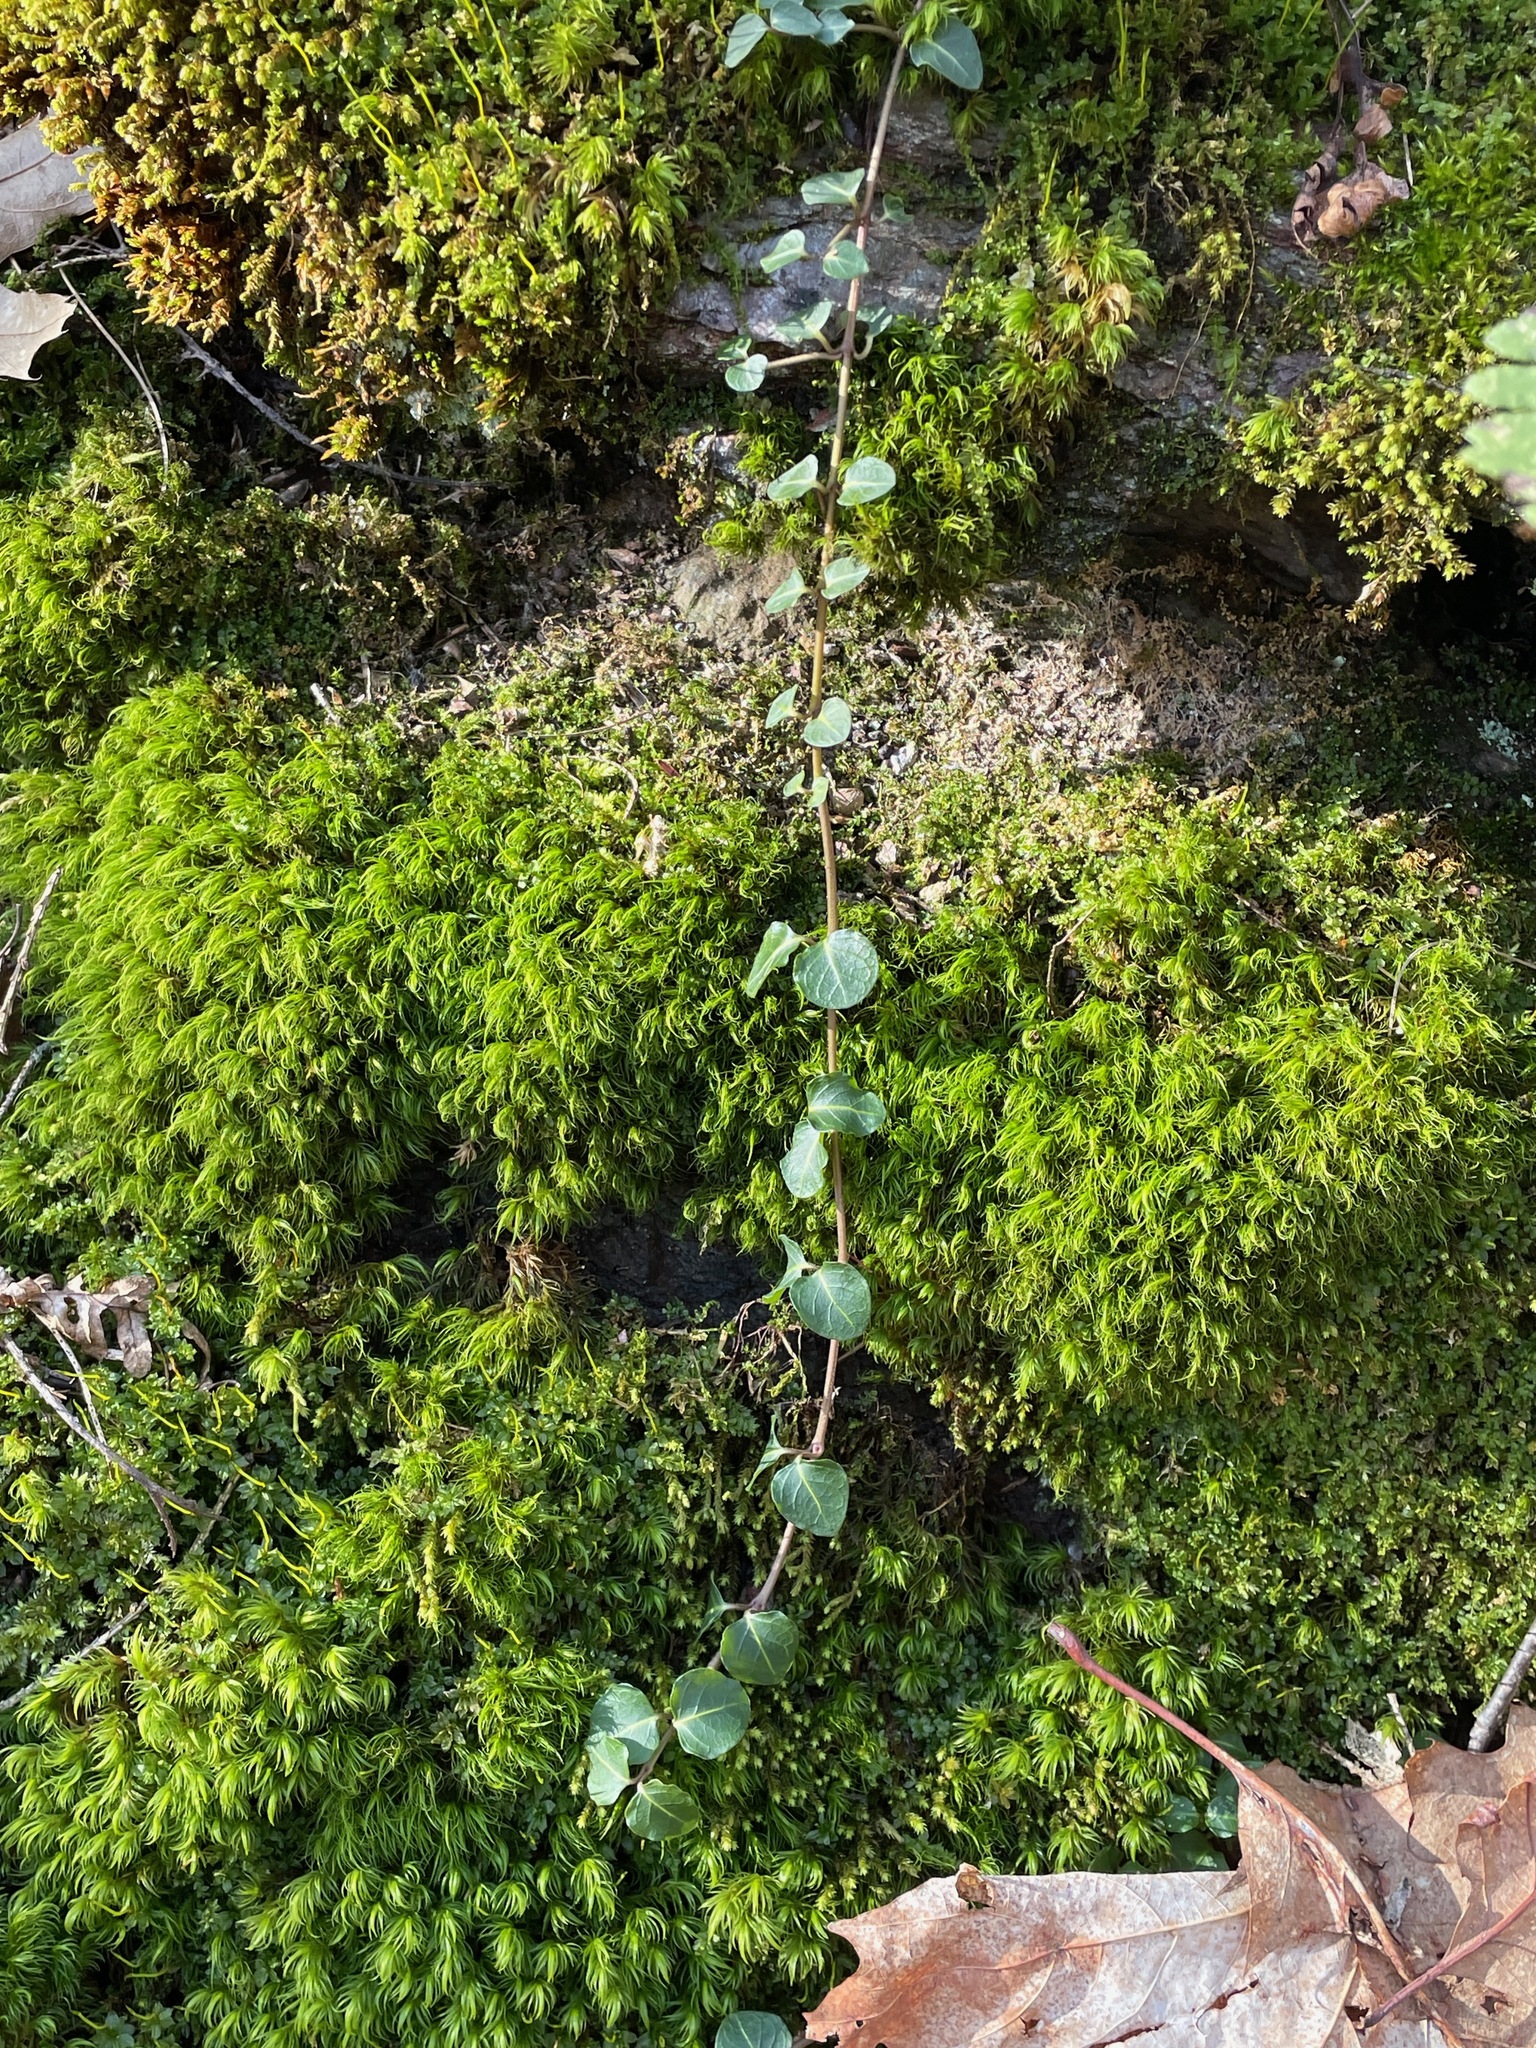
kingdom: Plantae
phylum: Tracheophyta
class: Magnoliopsida
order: Gentianales
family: Rubiaceae
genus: Mitchella
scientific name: Mitchella repens
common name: Partridge-berry
